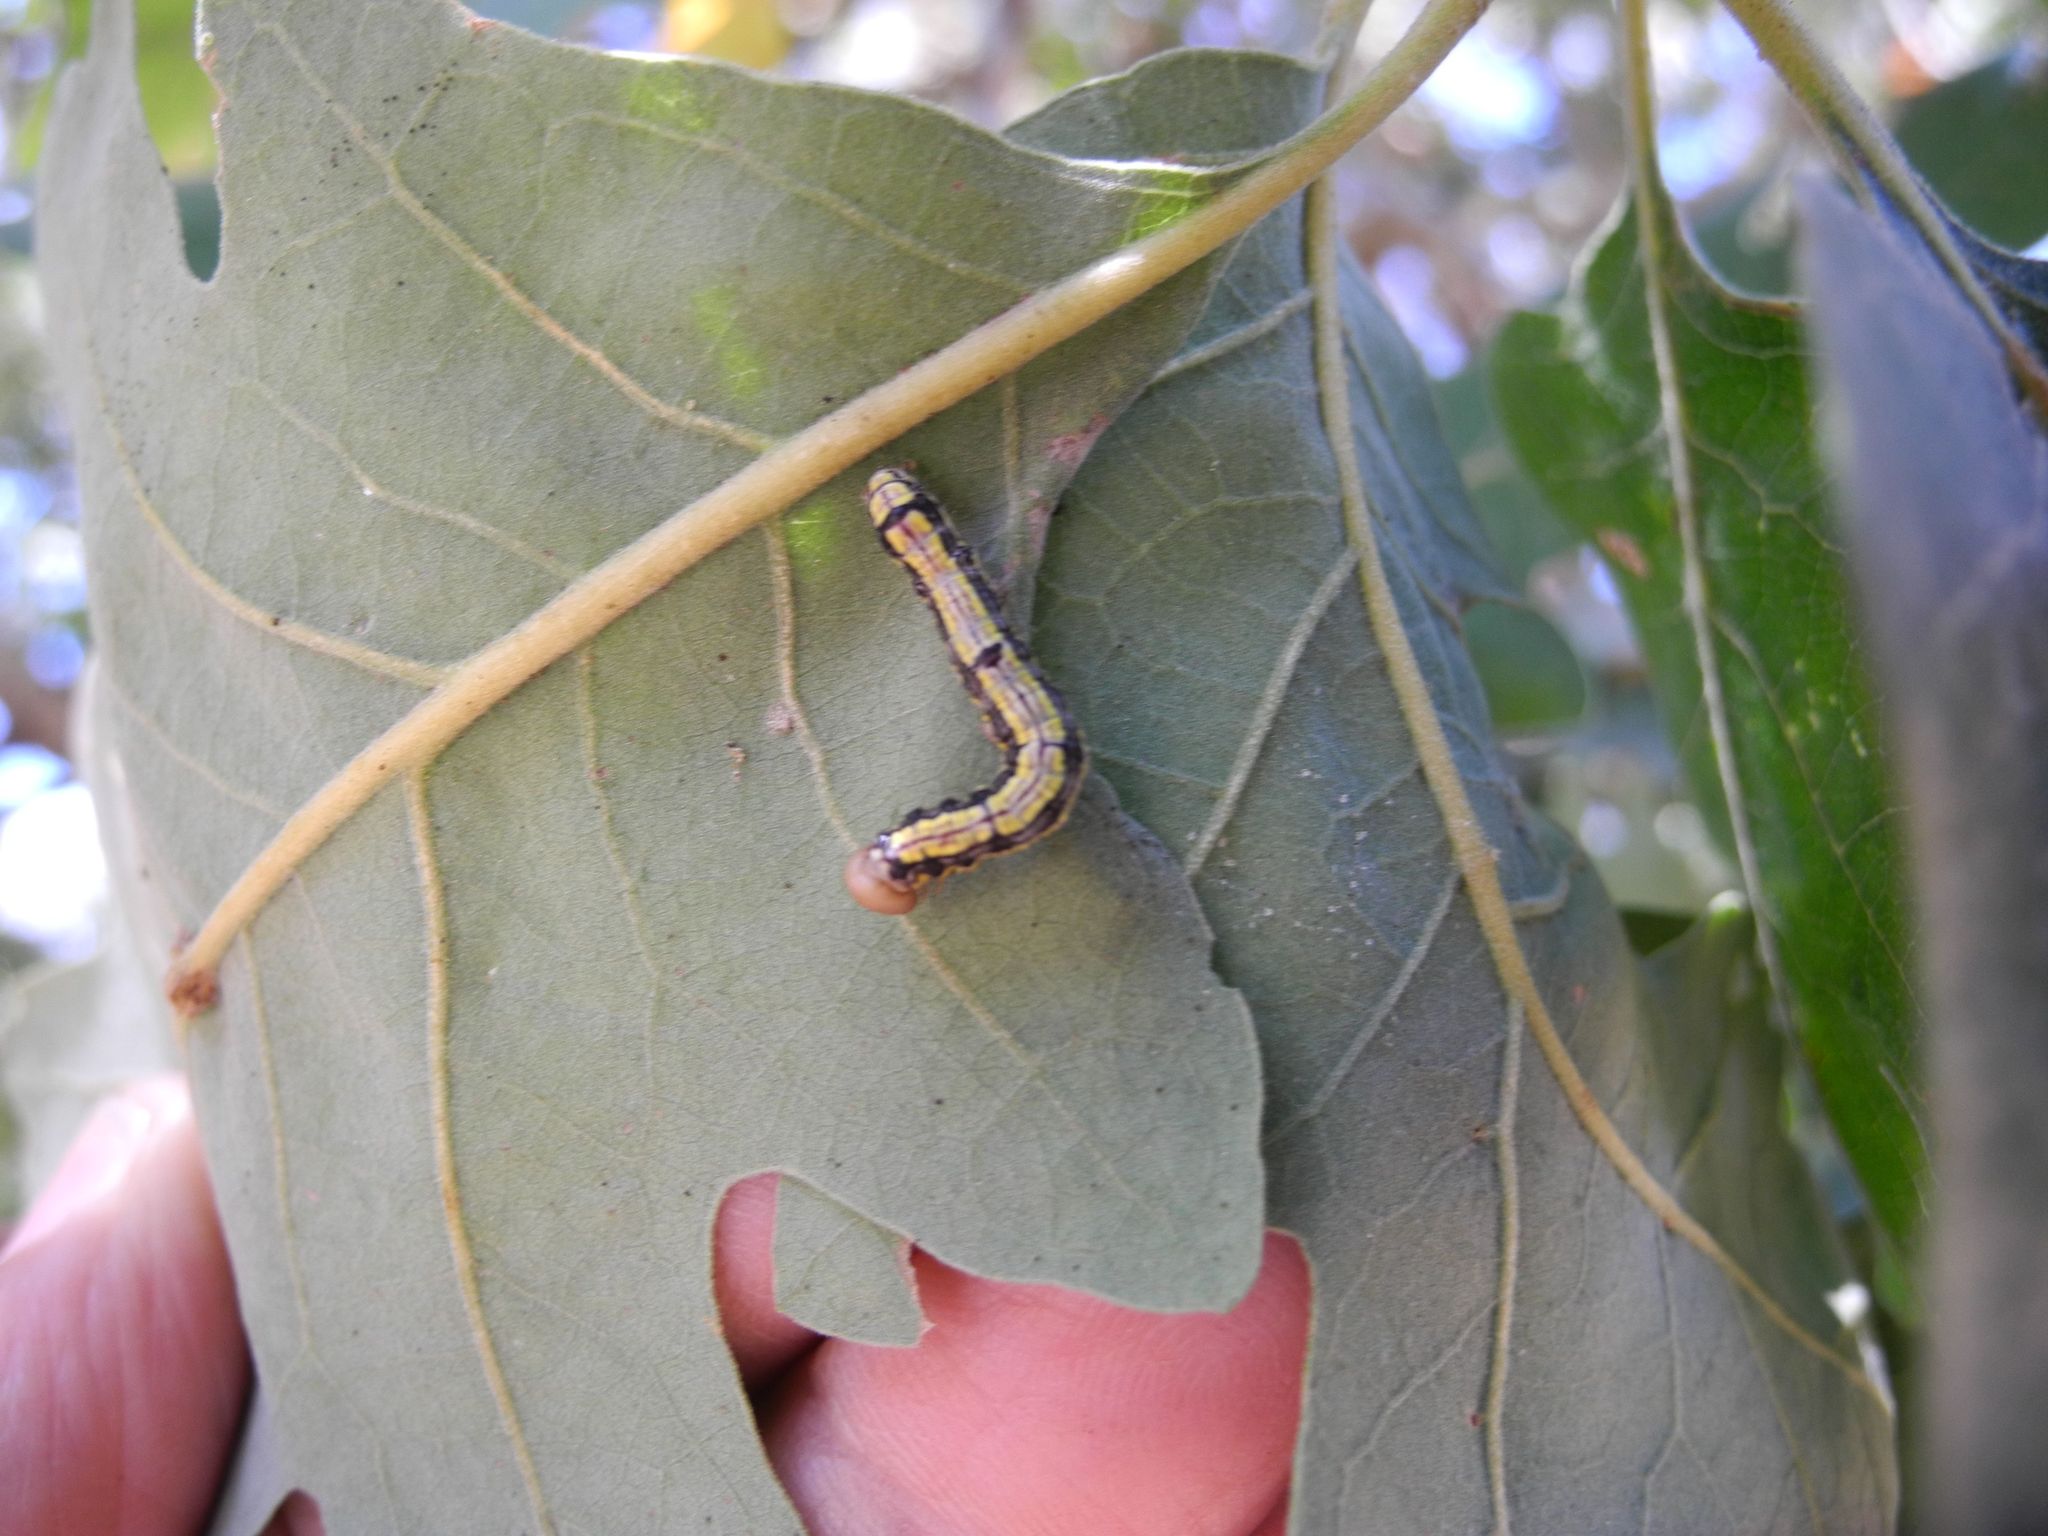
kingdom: Animalia
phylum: Arthropoda
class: Insecta
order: Lepidoptera
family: Notodontidae
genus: Phryganidia
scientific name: Phryganidia californica
